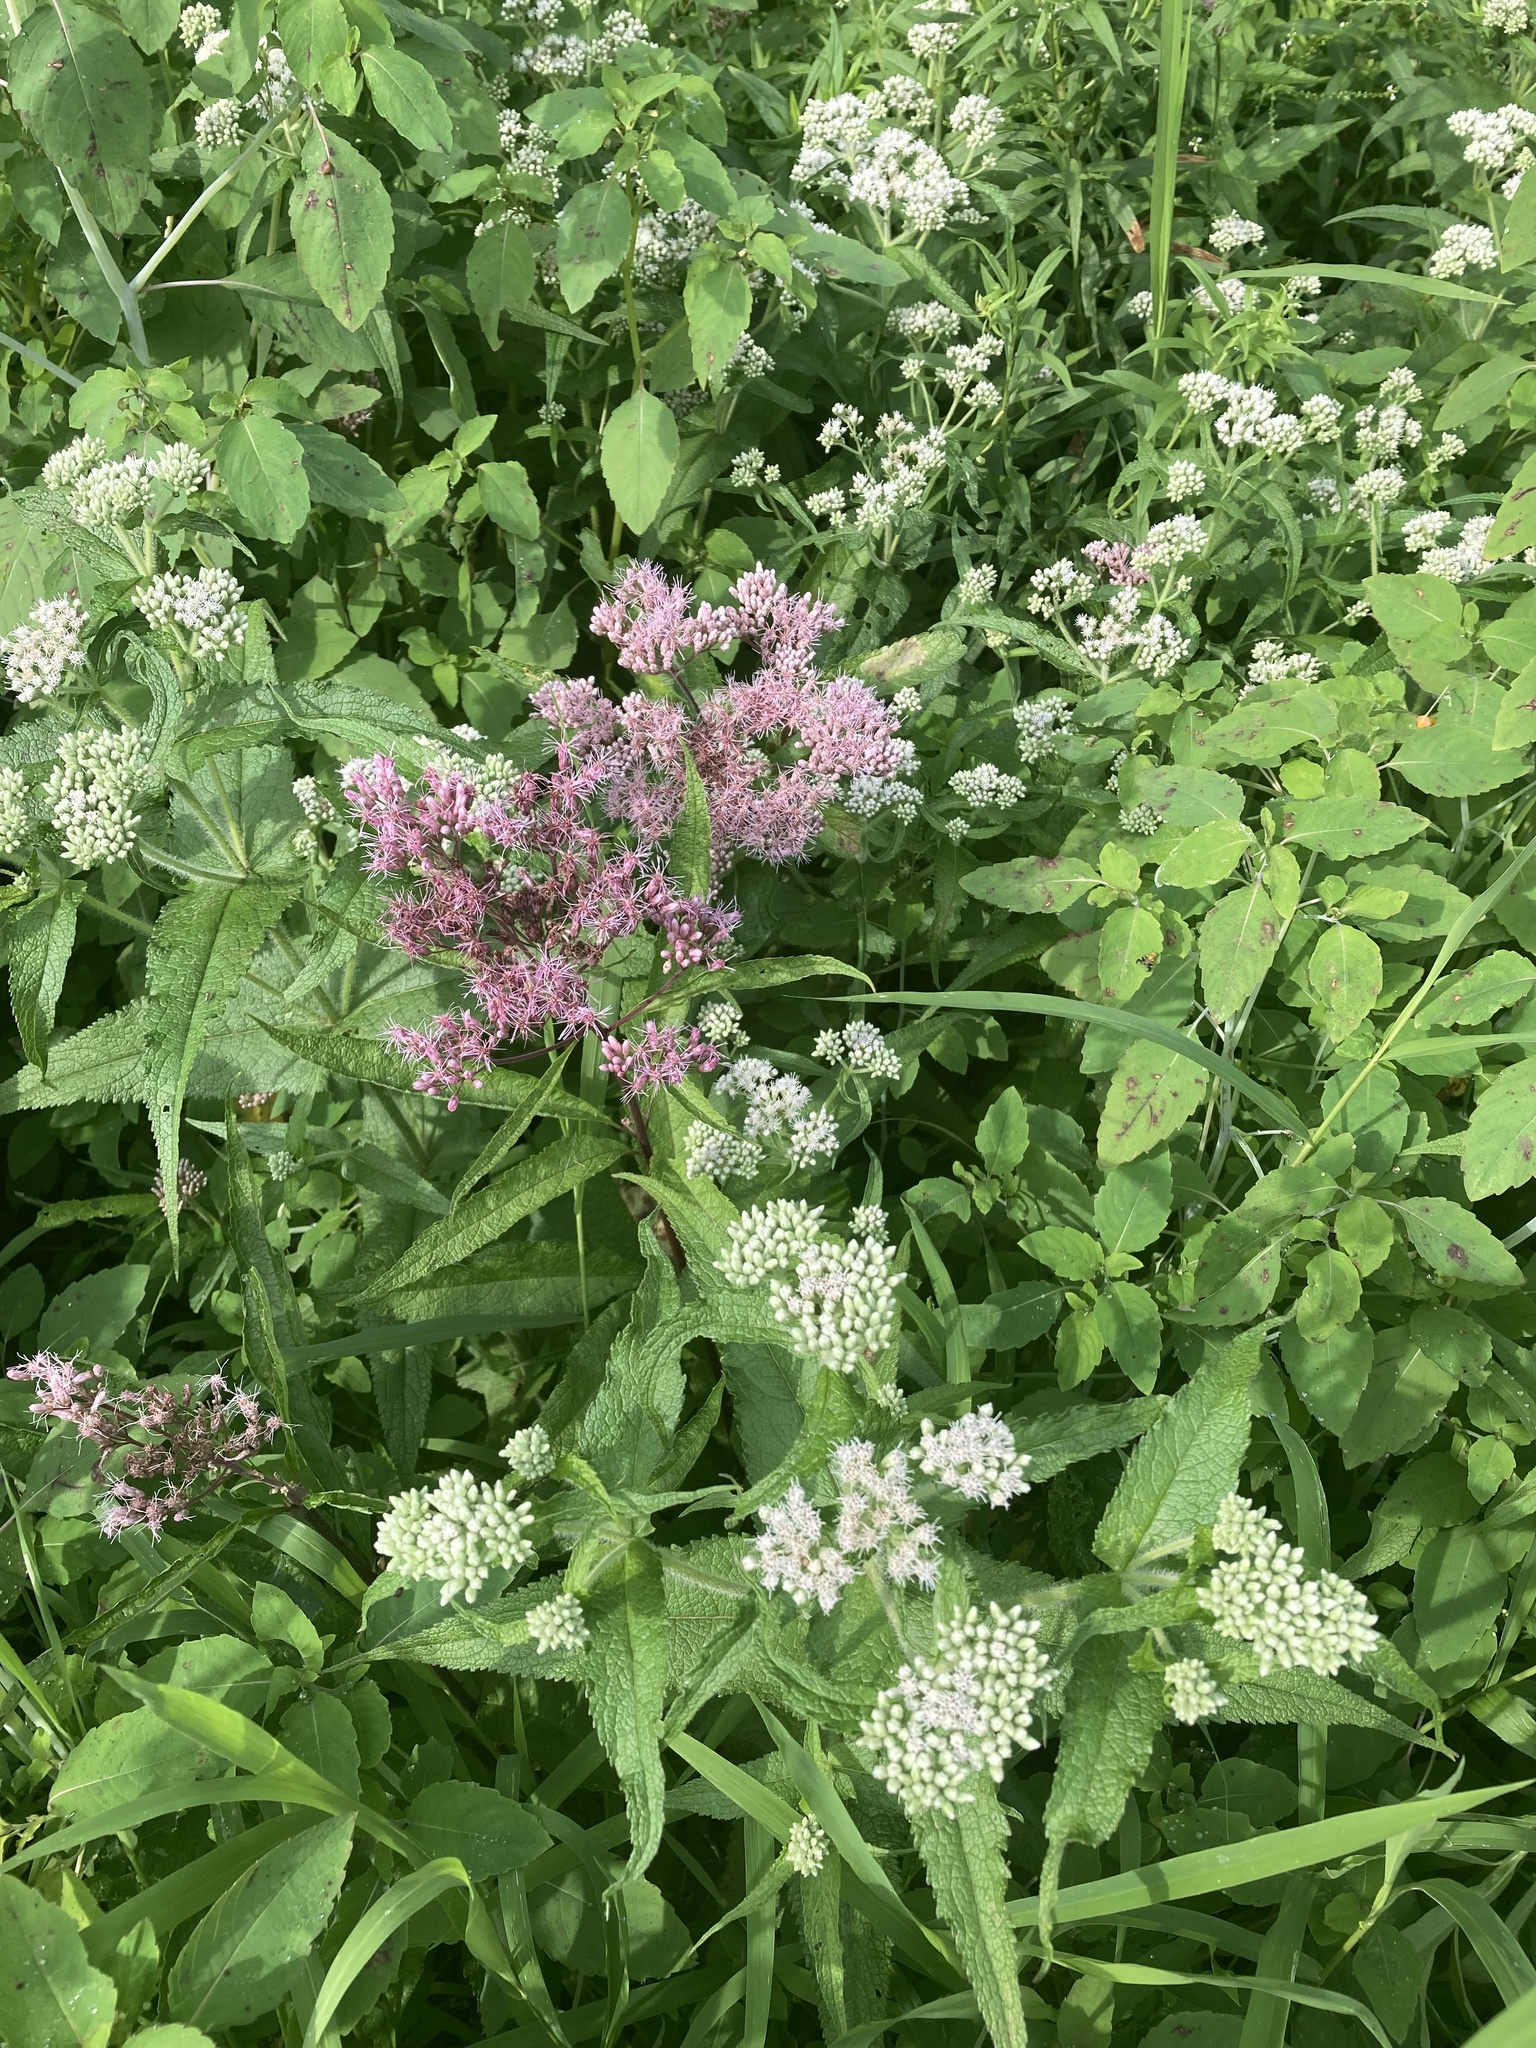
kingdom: Plantae
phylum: Tracheophyta
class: Magnoliopsida
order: Asterales
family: Asteraceae
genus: Eutrochium
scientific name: Eutrochium maculatum
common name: Spotted joe pye weed
